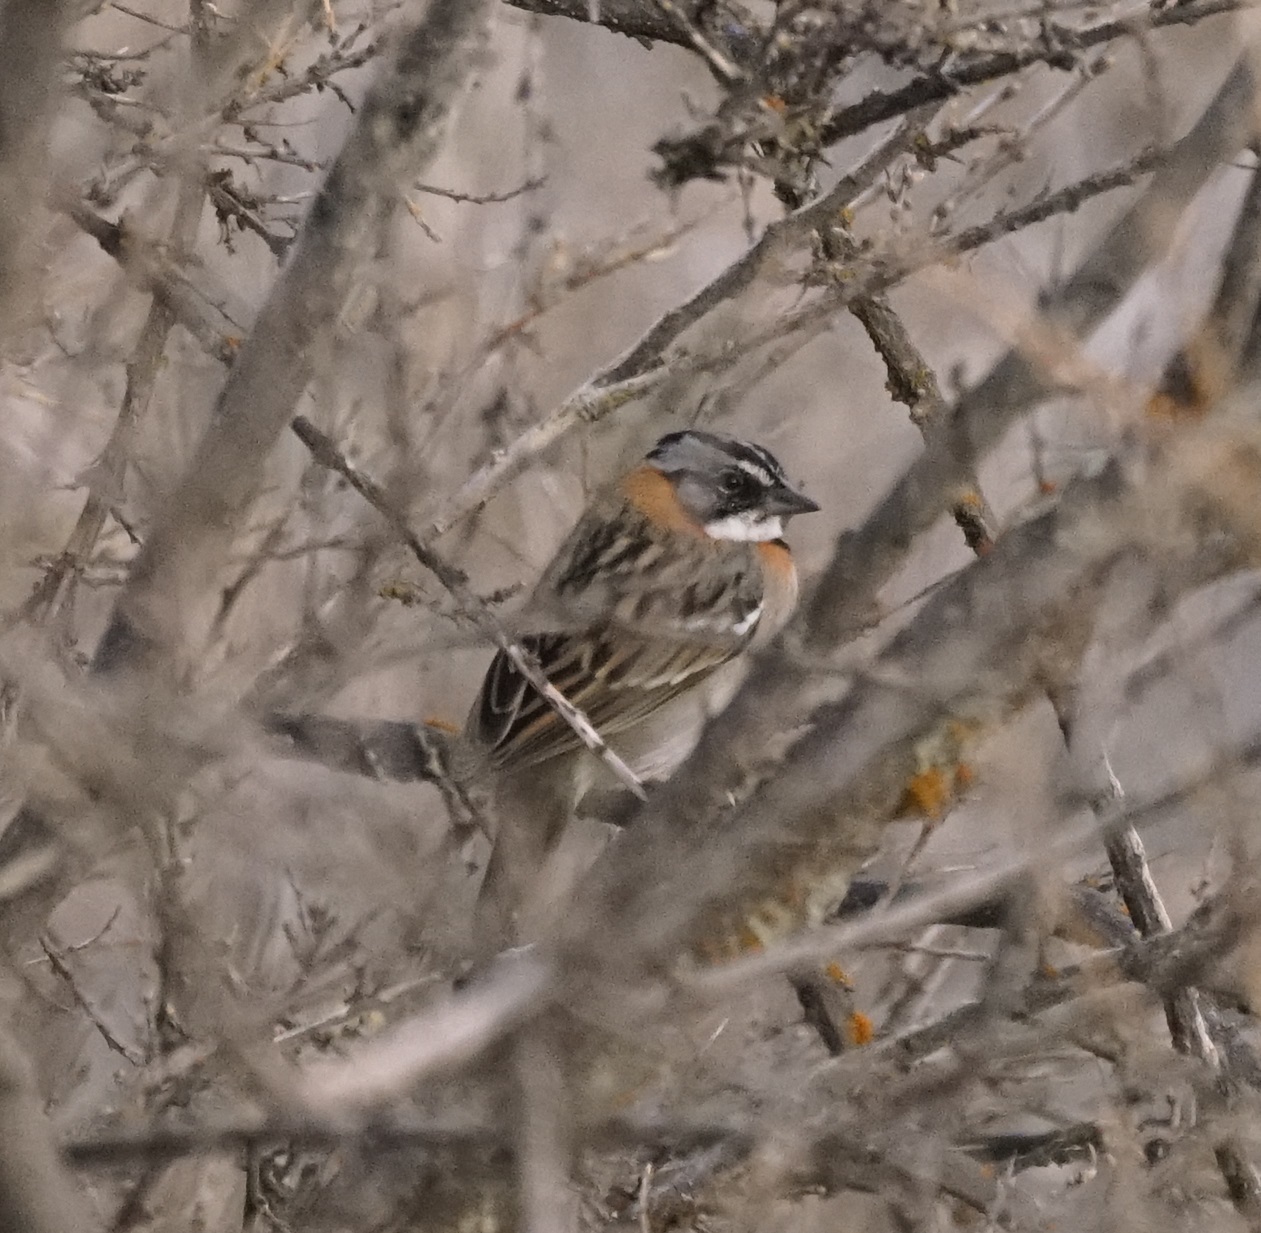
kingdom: Animalia
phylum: Chordata
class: Aves
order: Passeriformes
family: Passerellidae
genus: Zonotrichia
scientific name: Zonotrichia capensis
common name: Rufous-collared sparrow
